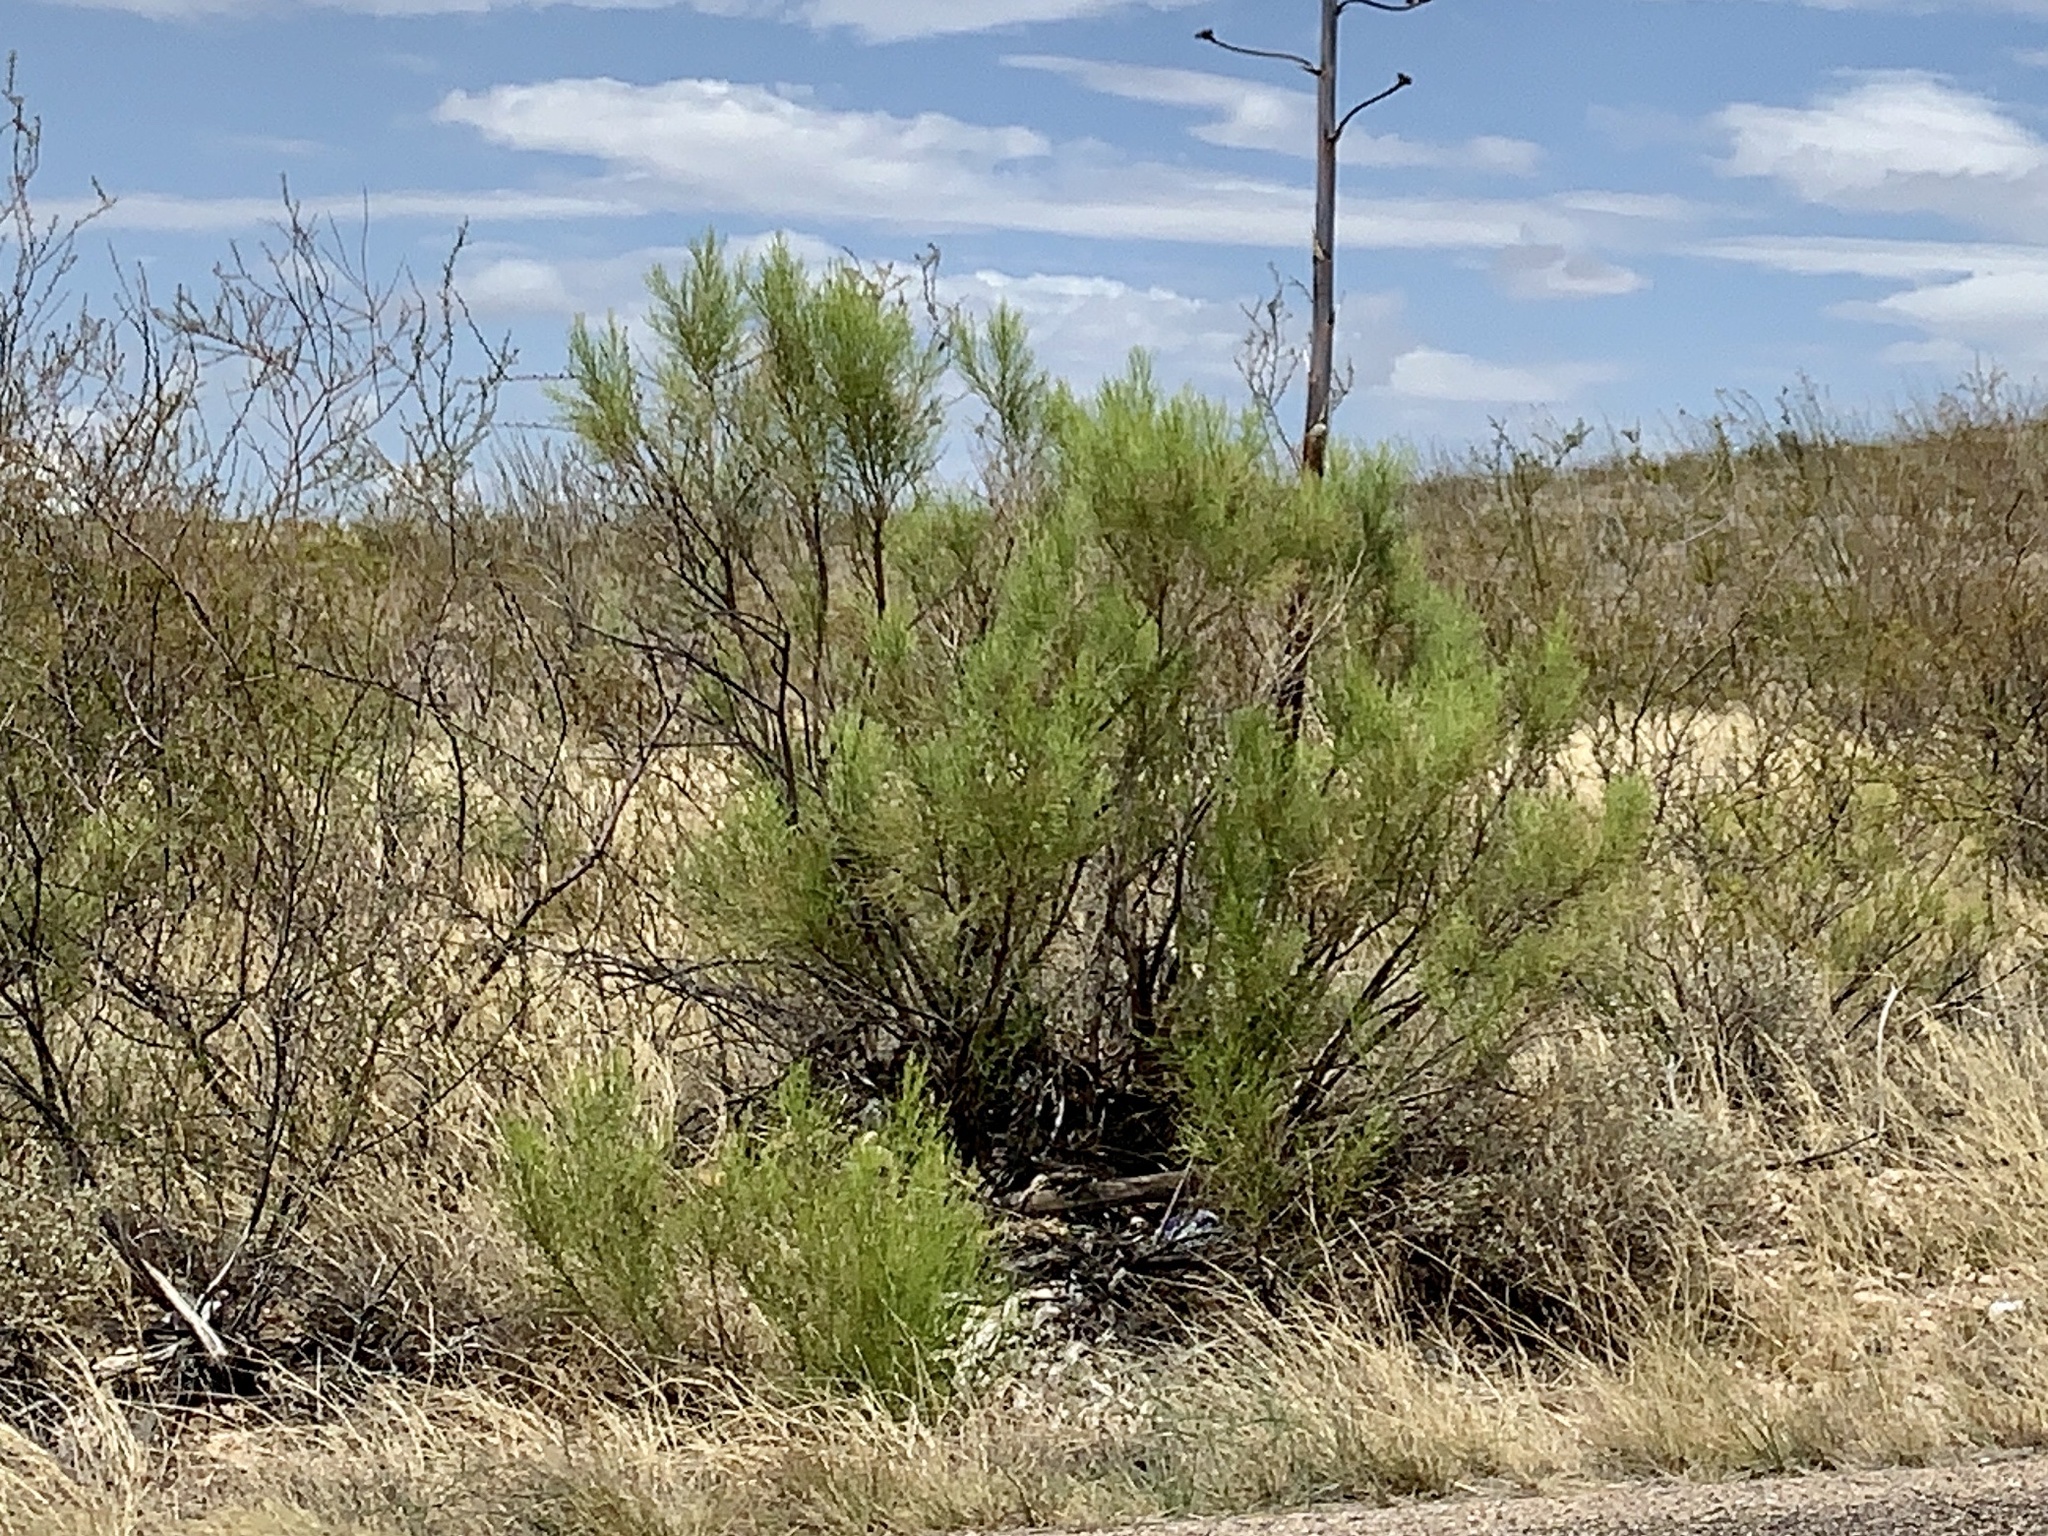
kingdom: Plantae
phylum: Tracheophyta
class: Magnoliopsida
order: Asterales
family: Asteraceae
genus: Baccharis
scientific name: Baccharis sarothroides
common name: Desert-broom
